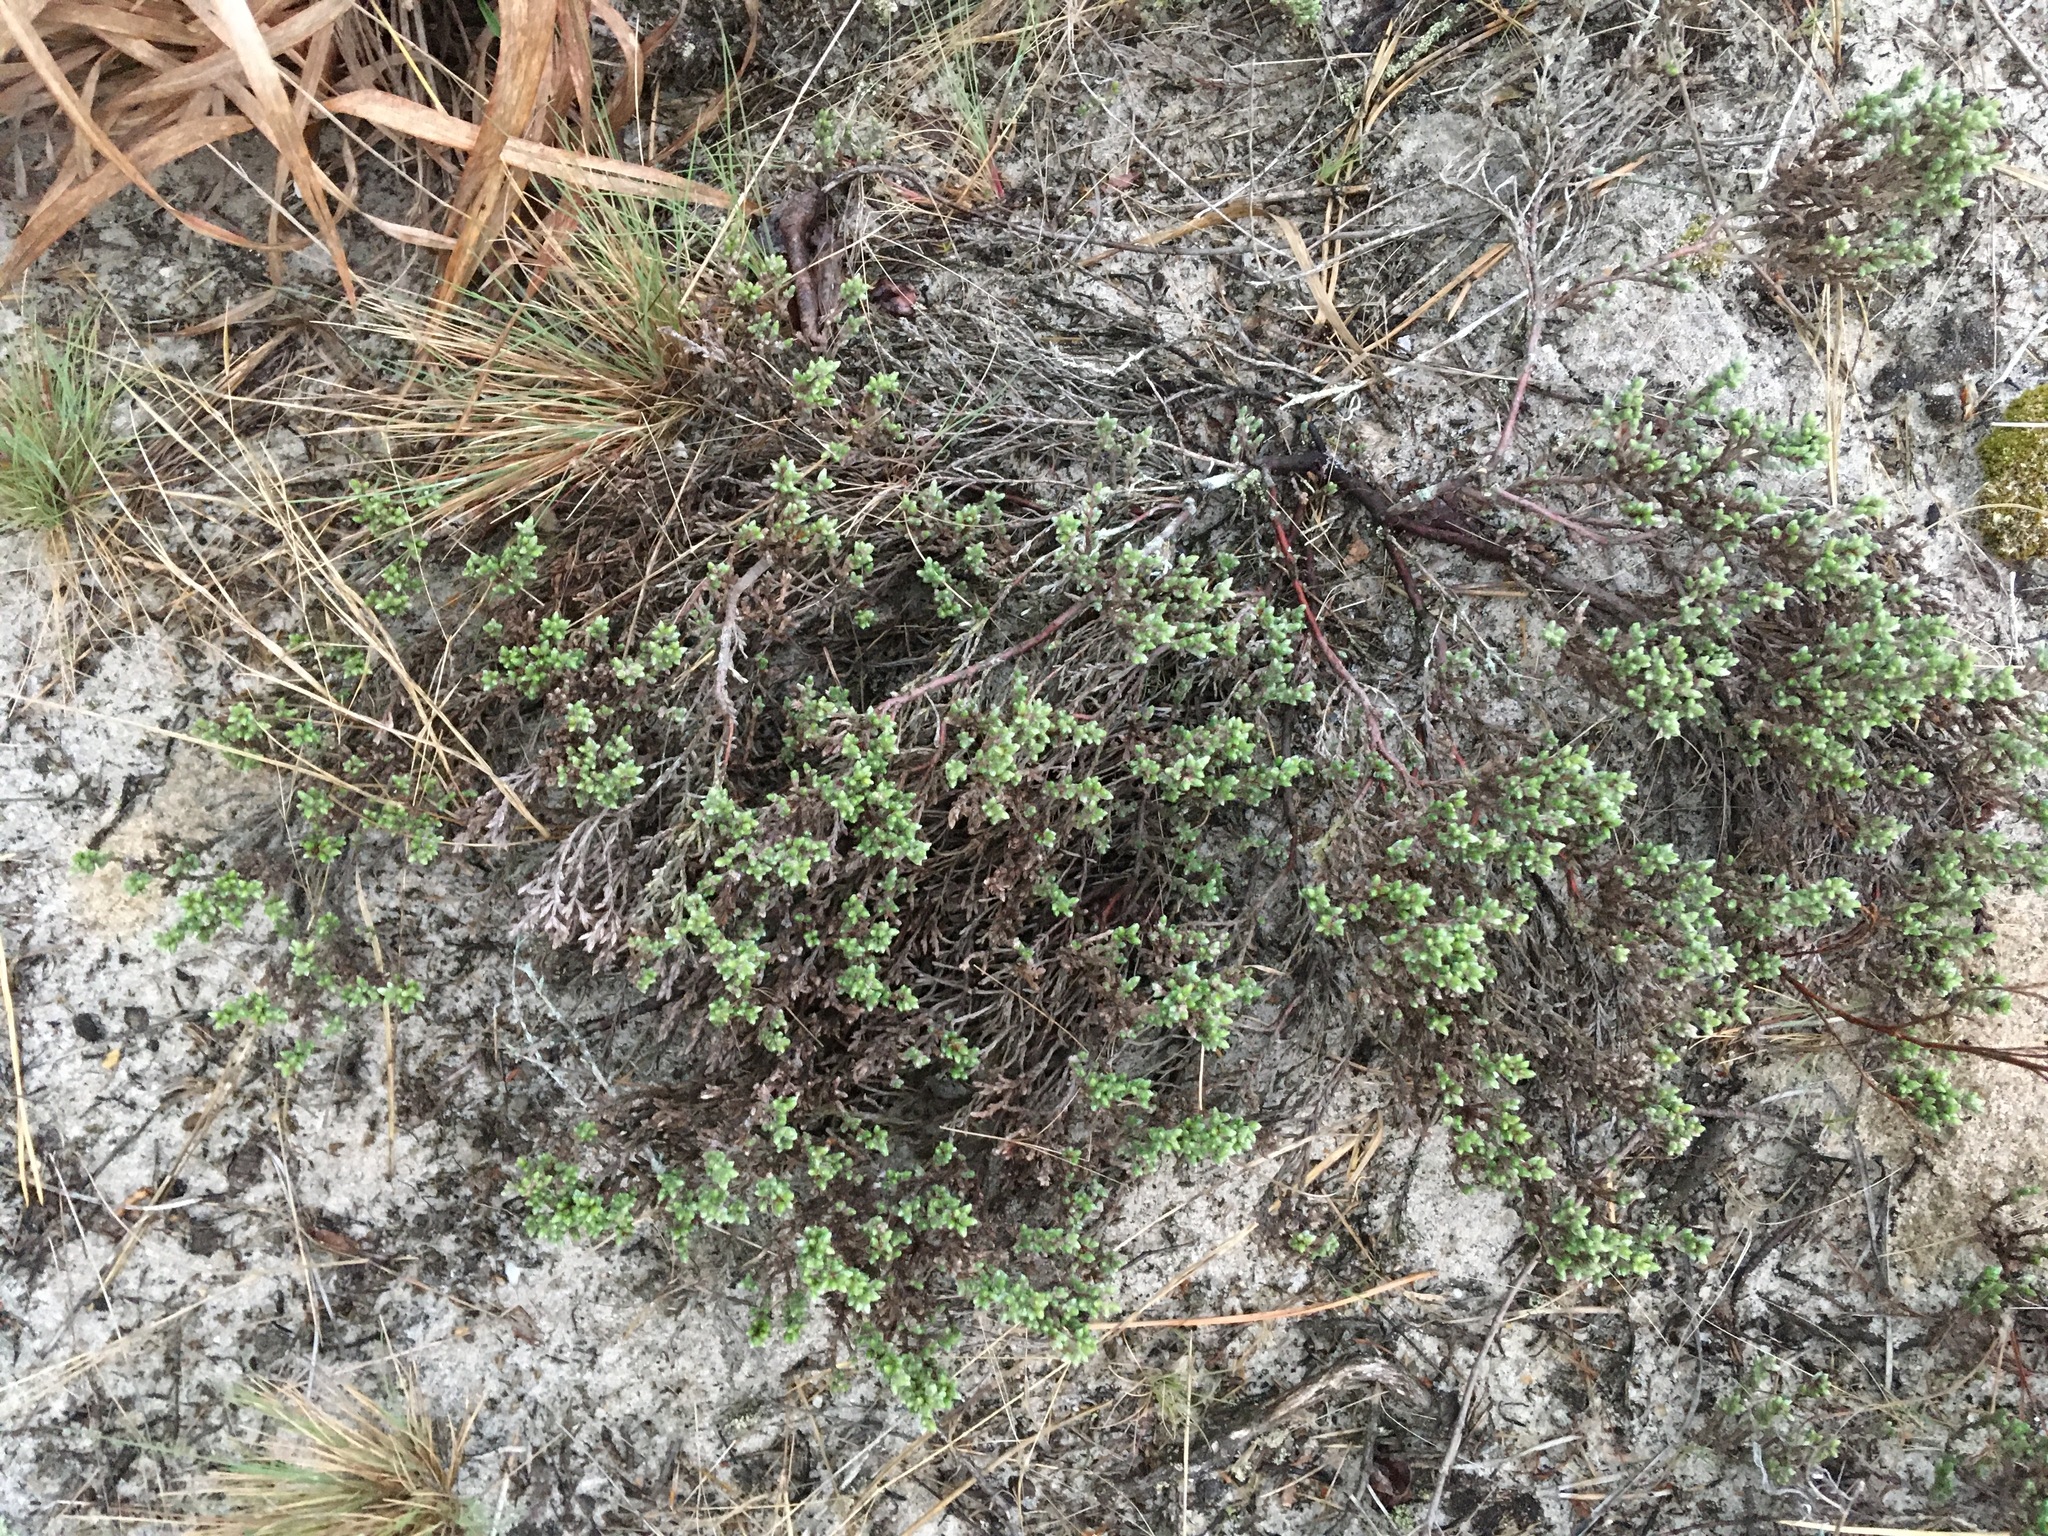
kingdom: Plantae
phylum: Tracheophyta
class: Magnoliopsida
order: Malvales
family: Cistaceae
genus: Hudsonia
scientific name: Hudsonia tomentosa
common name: Beach-heath
